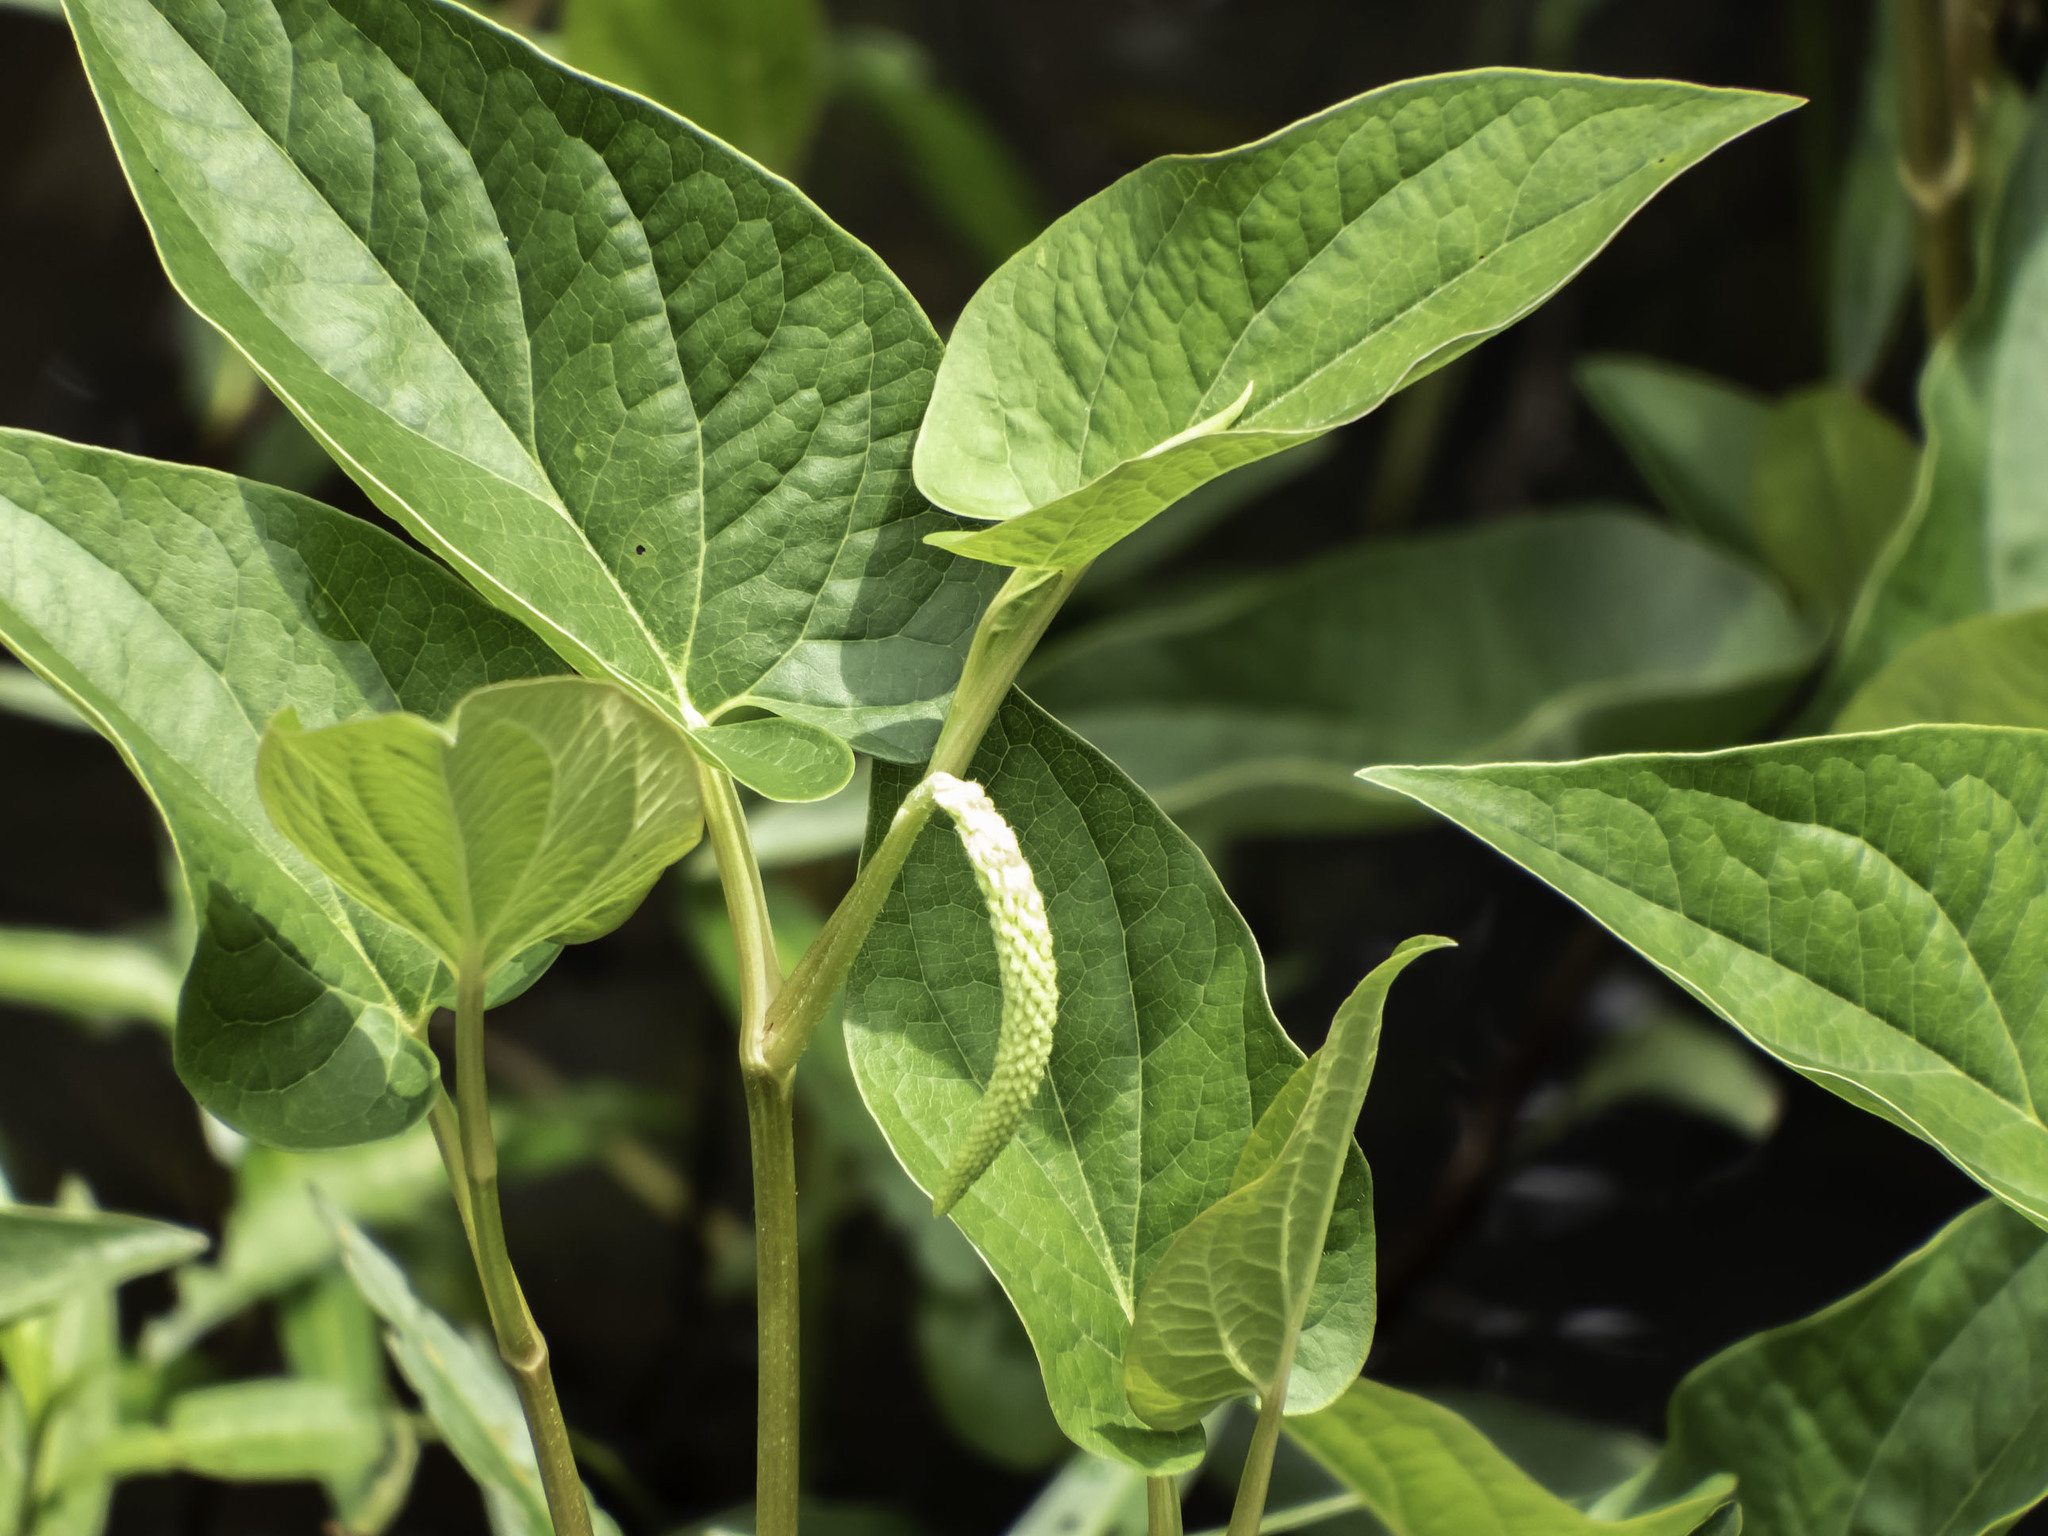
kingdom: Plantae
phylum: Tracheophyta
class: Magnoliopsida
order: Piperales
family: Saururaceae
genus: Saururus
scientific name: Saururus cernuus
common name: Lizard's-tail
